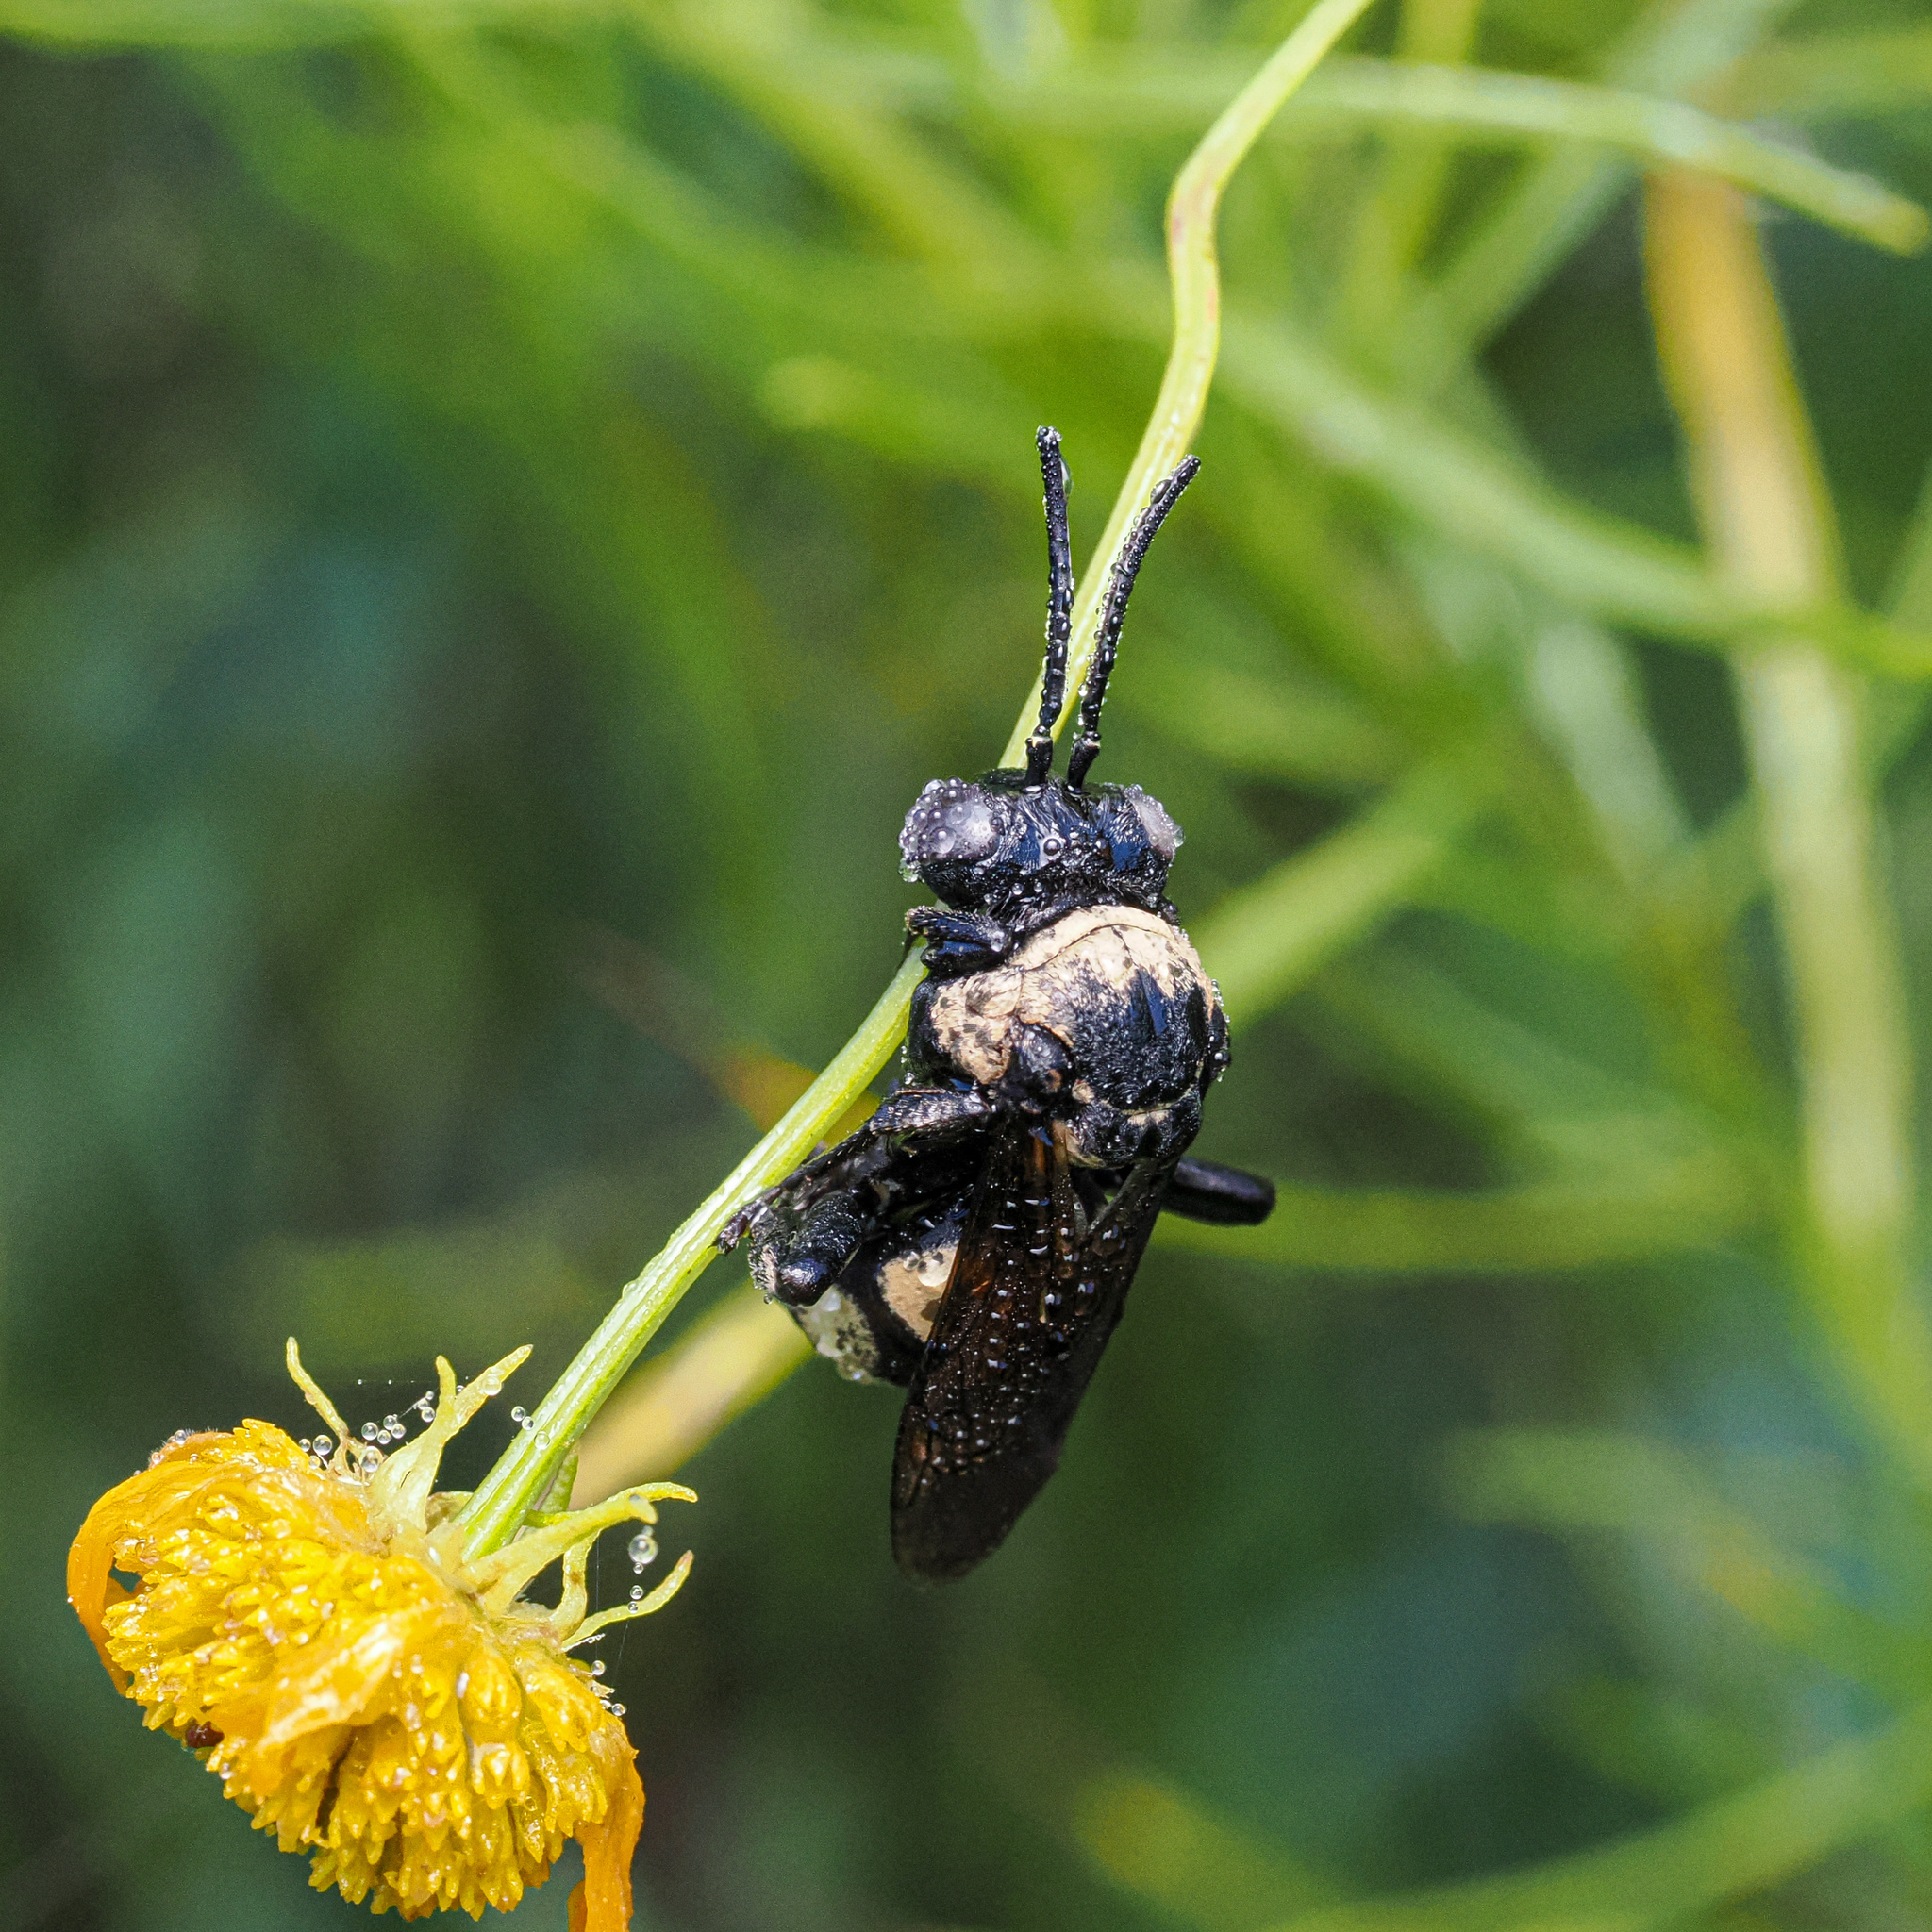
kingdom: Animalia
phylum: Arthropoda
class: Insecta
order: Hymenoptera
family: Apidae
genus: Triepeolus
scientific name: Triepeolus concavus
